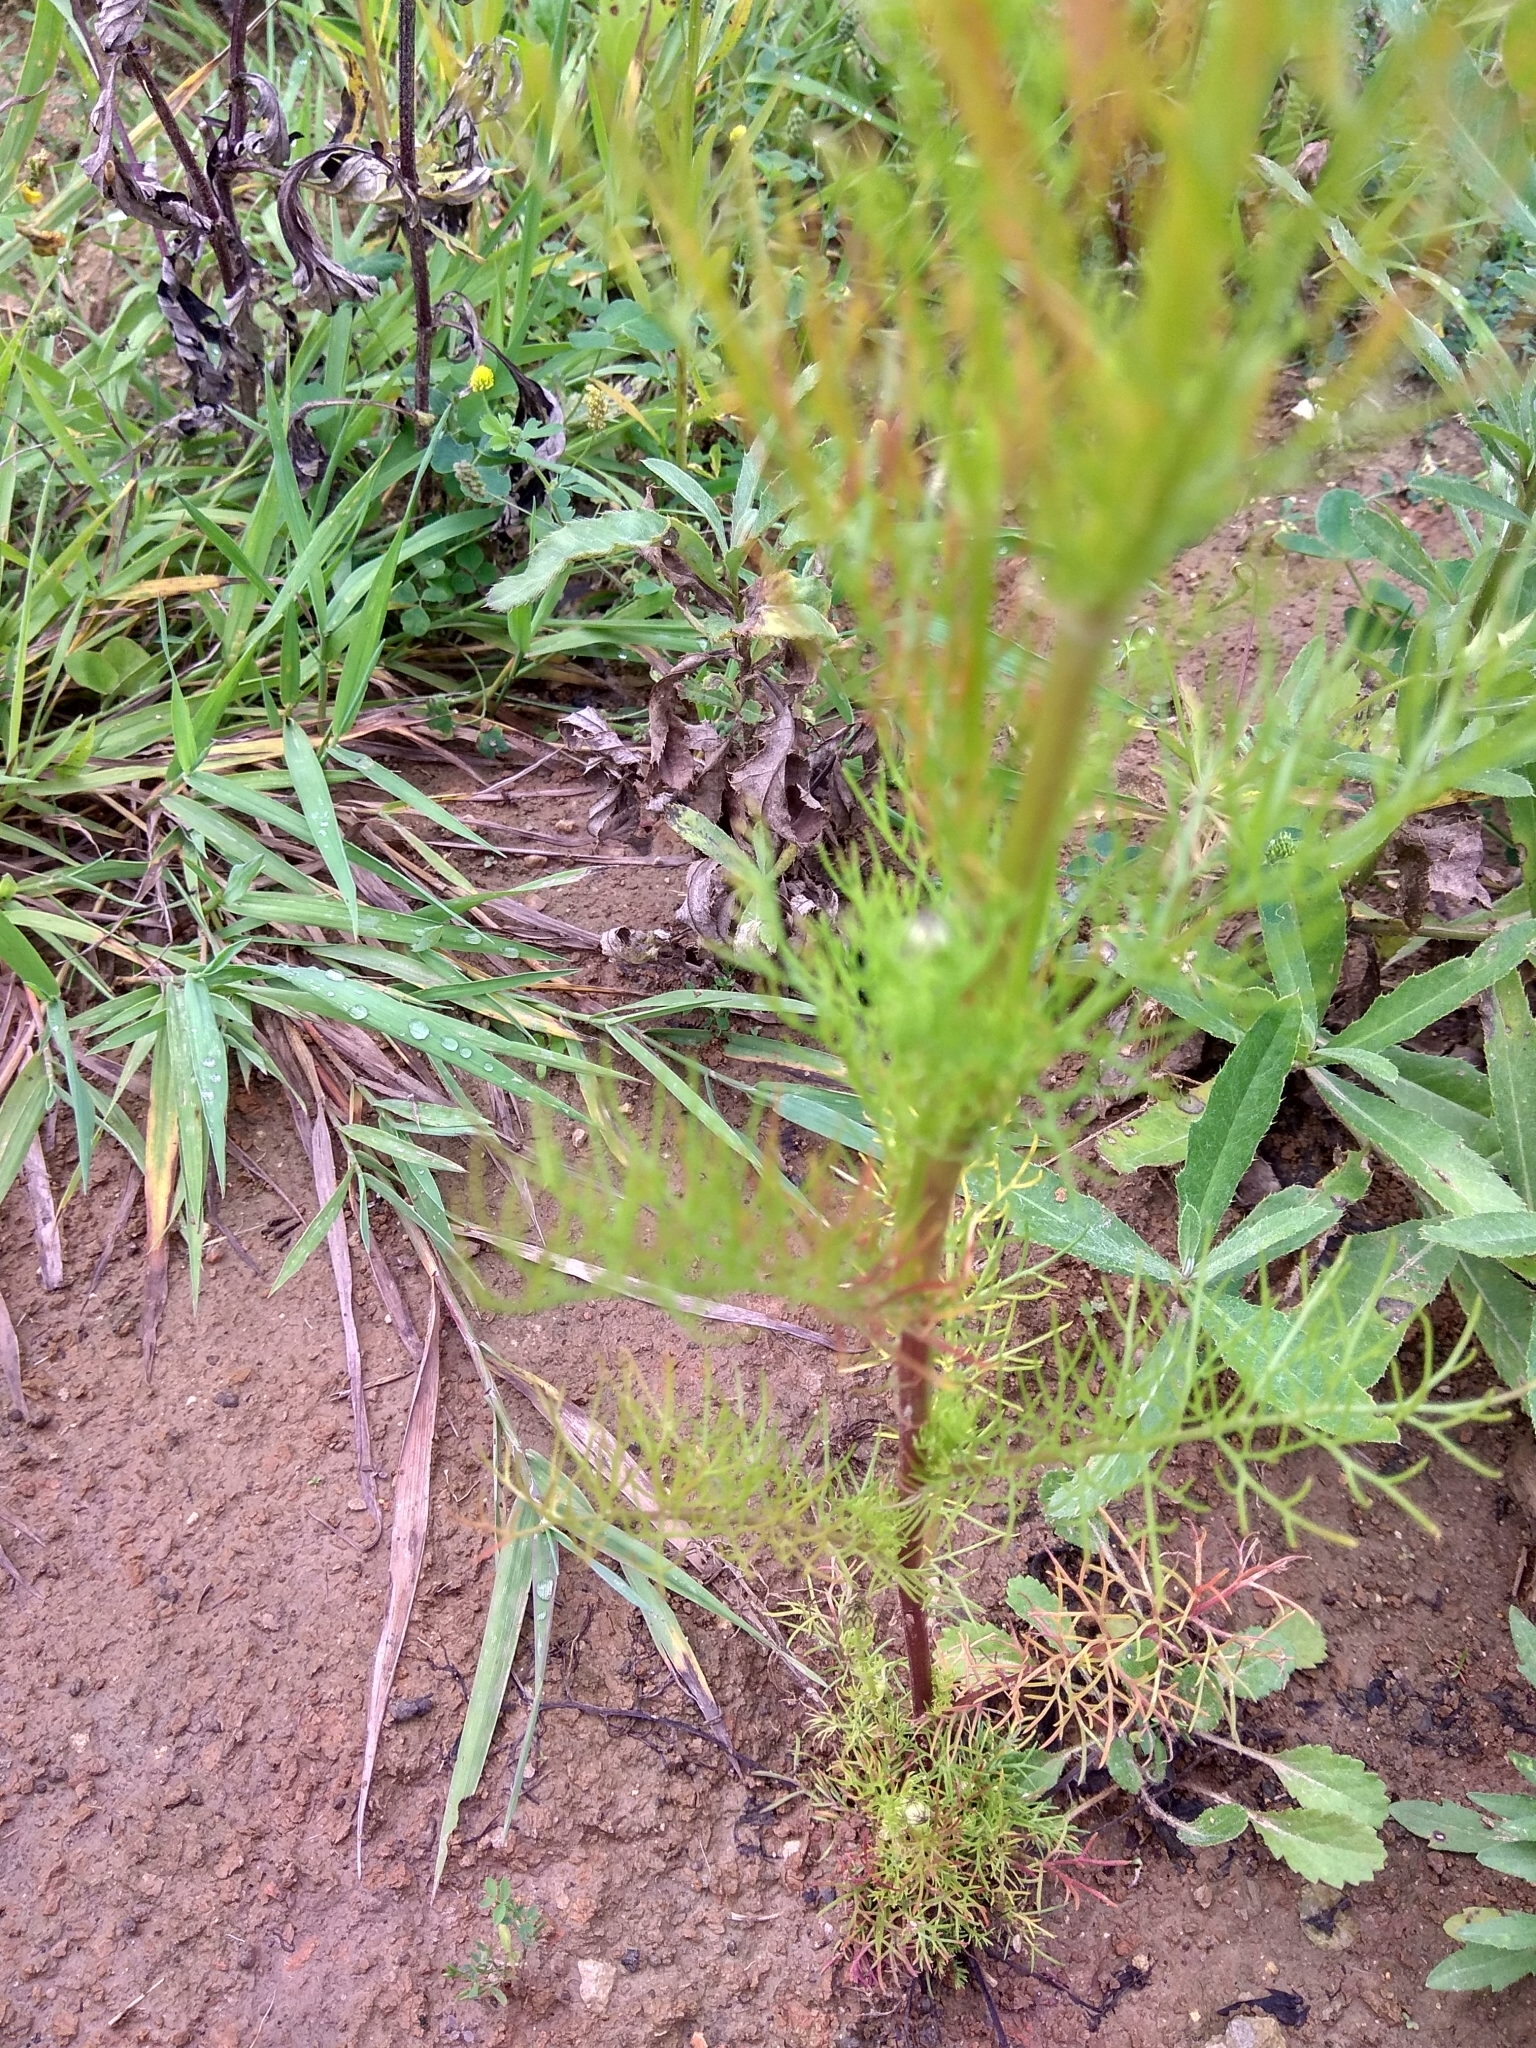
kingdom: Plantae
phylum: Tracheophyta
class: Magnoliopsida
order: Asterales
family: Asteraceae
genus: Tripleurospermum
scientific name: Tripleurospermum inodorum
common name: Scentless mayweed
